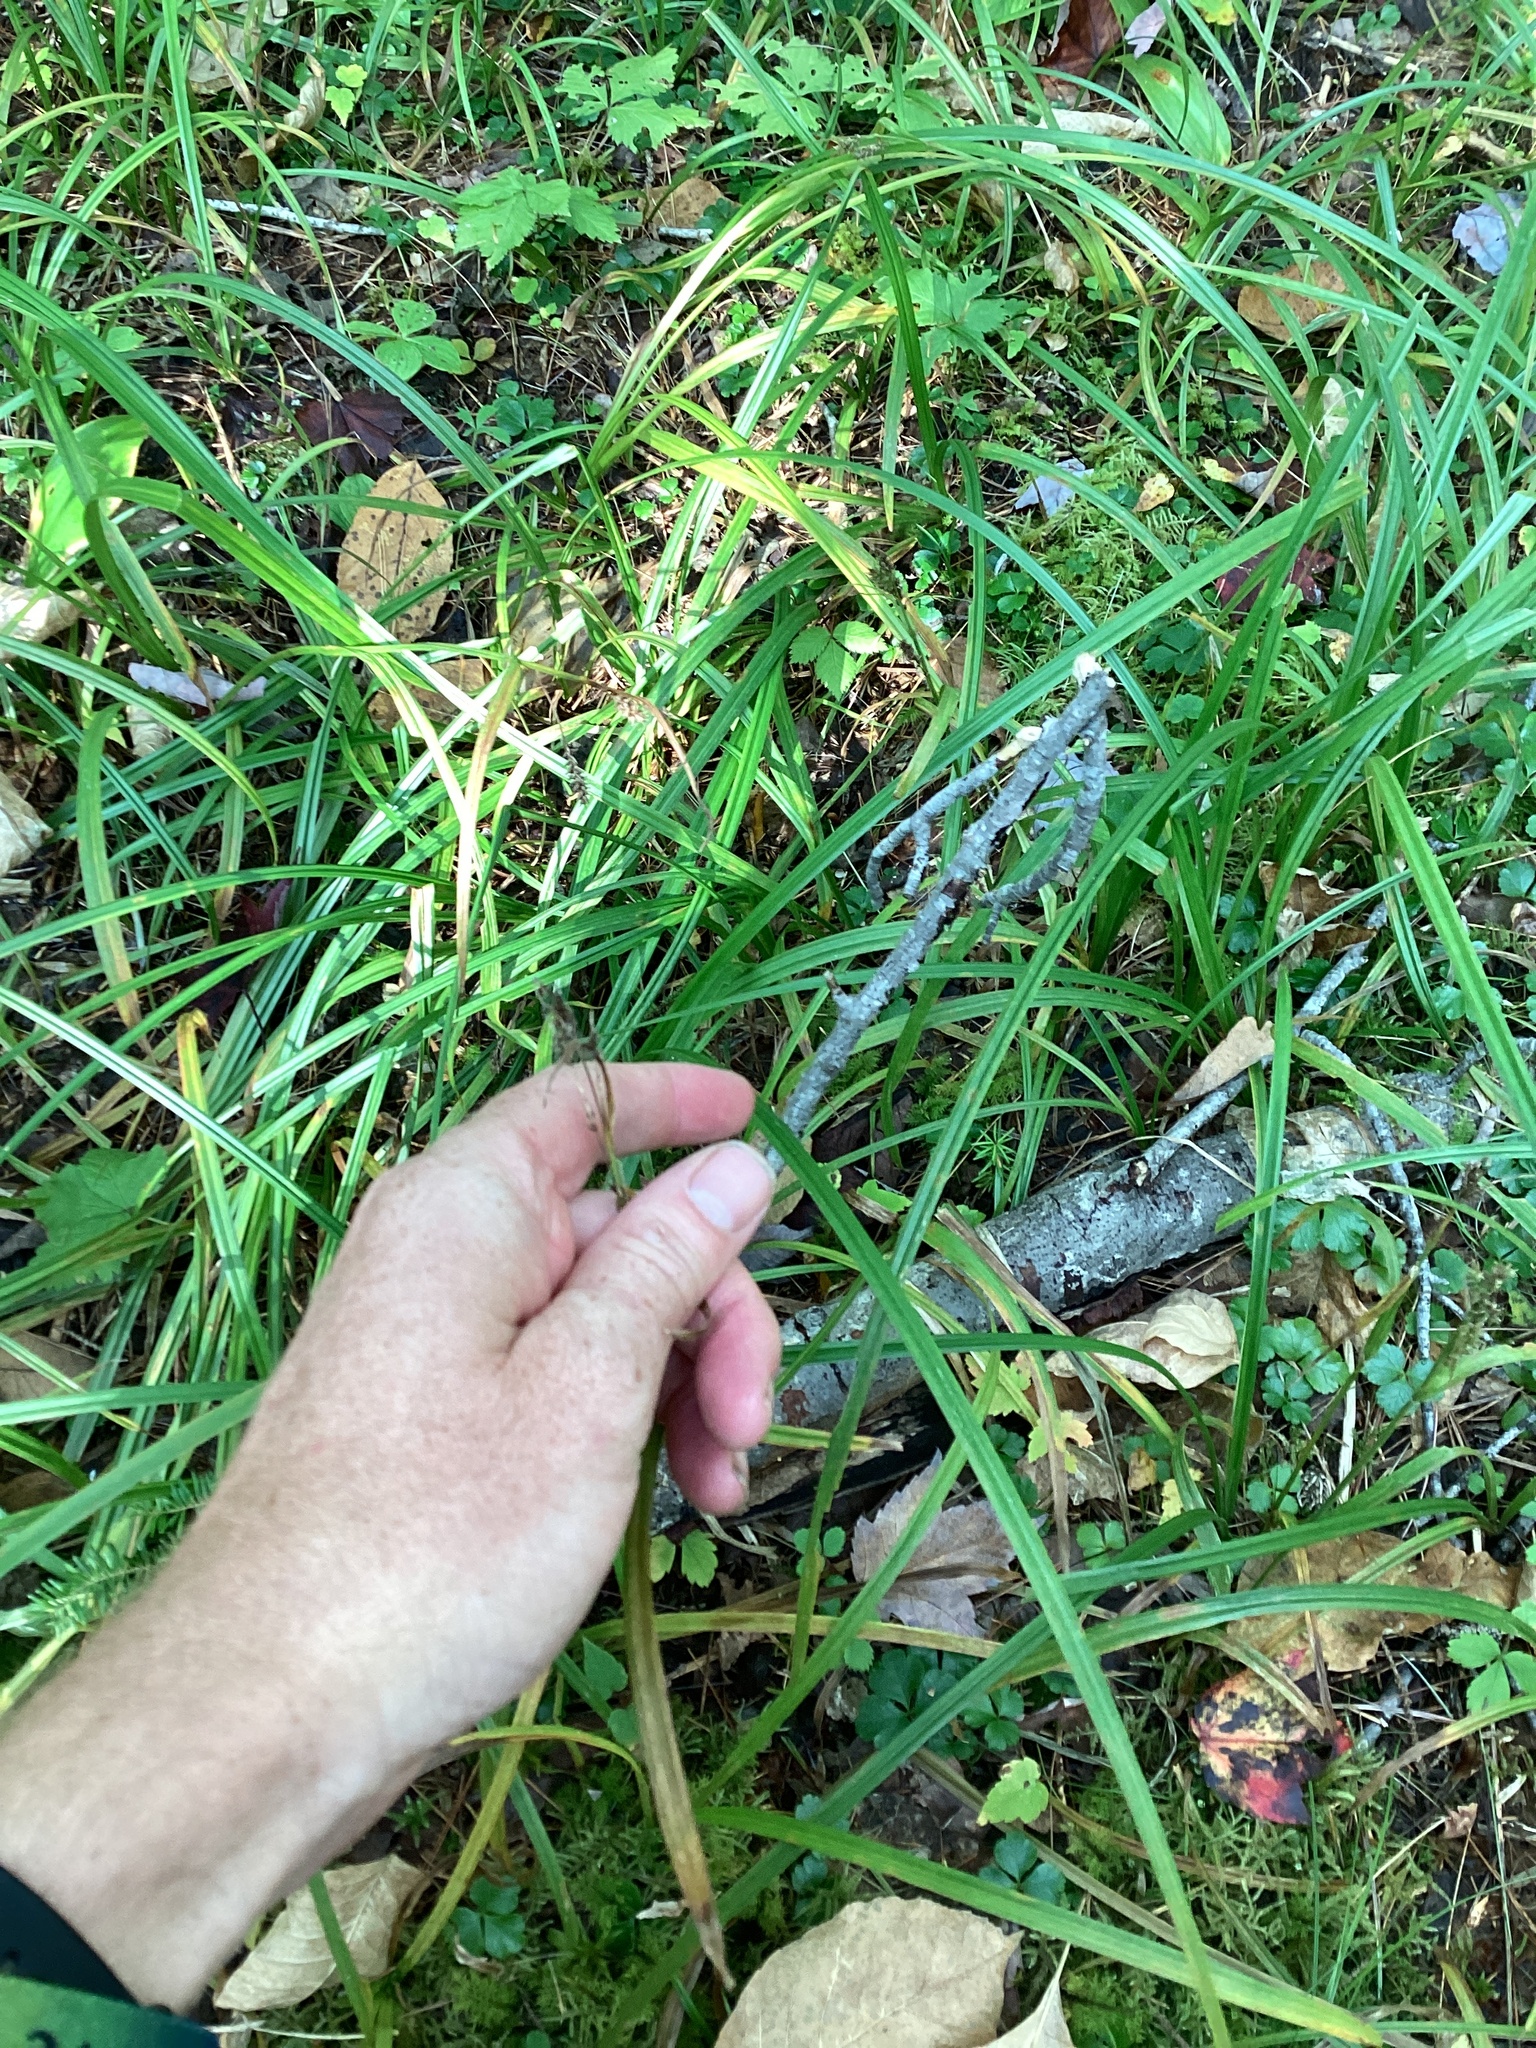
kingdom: Plantae
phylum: Tracheophyta
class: Liliopsida
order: Poales
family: Cyperaceae
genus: Carex
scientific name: Carex scabrata
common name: Eastern rough sedge
